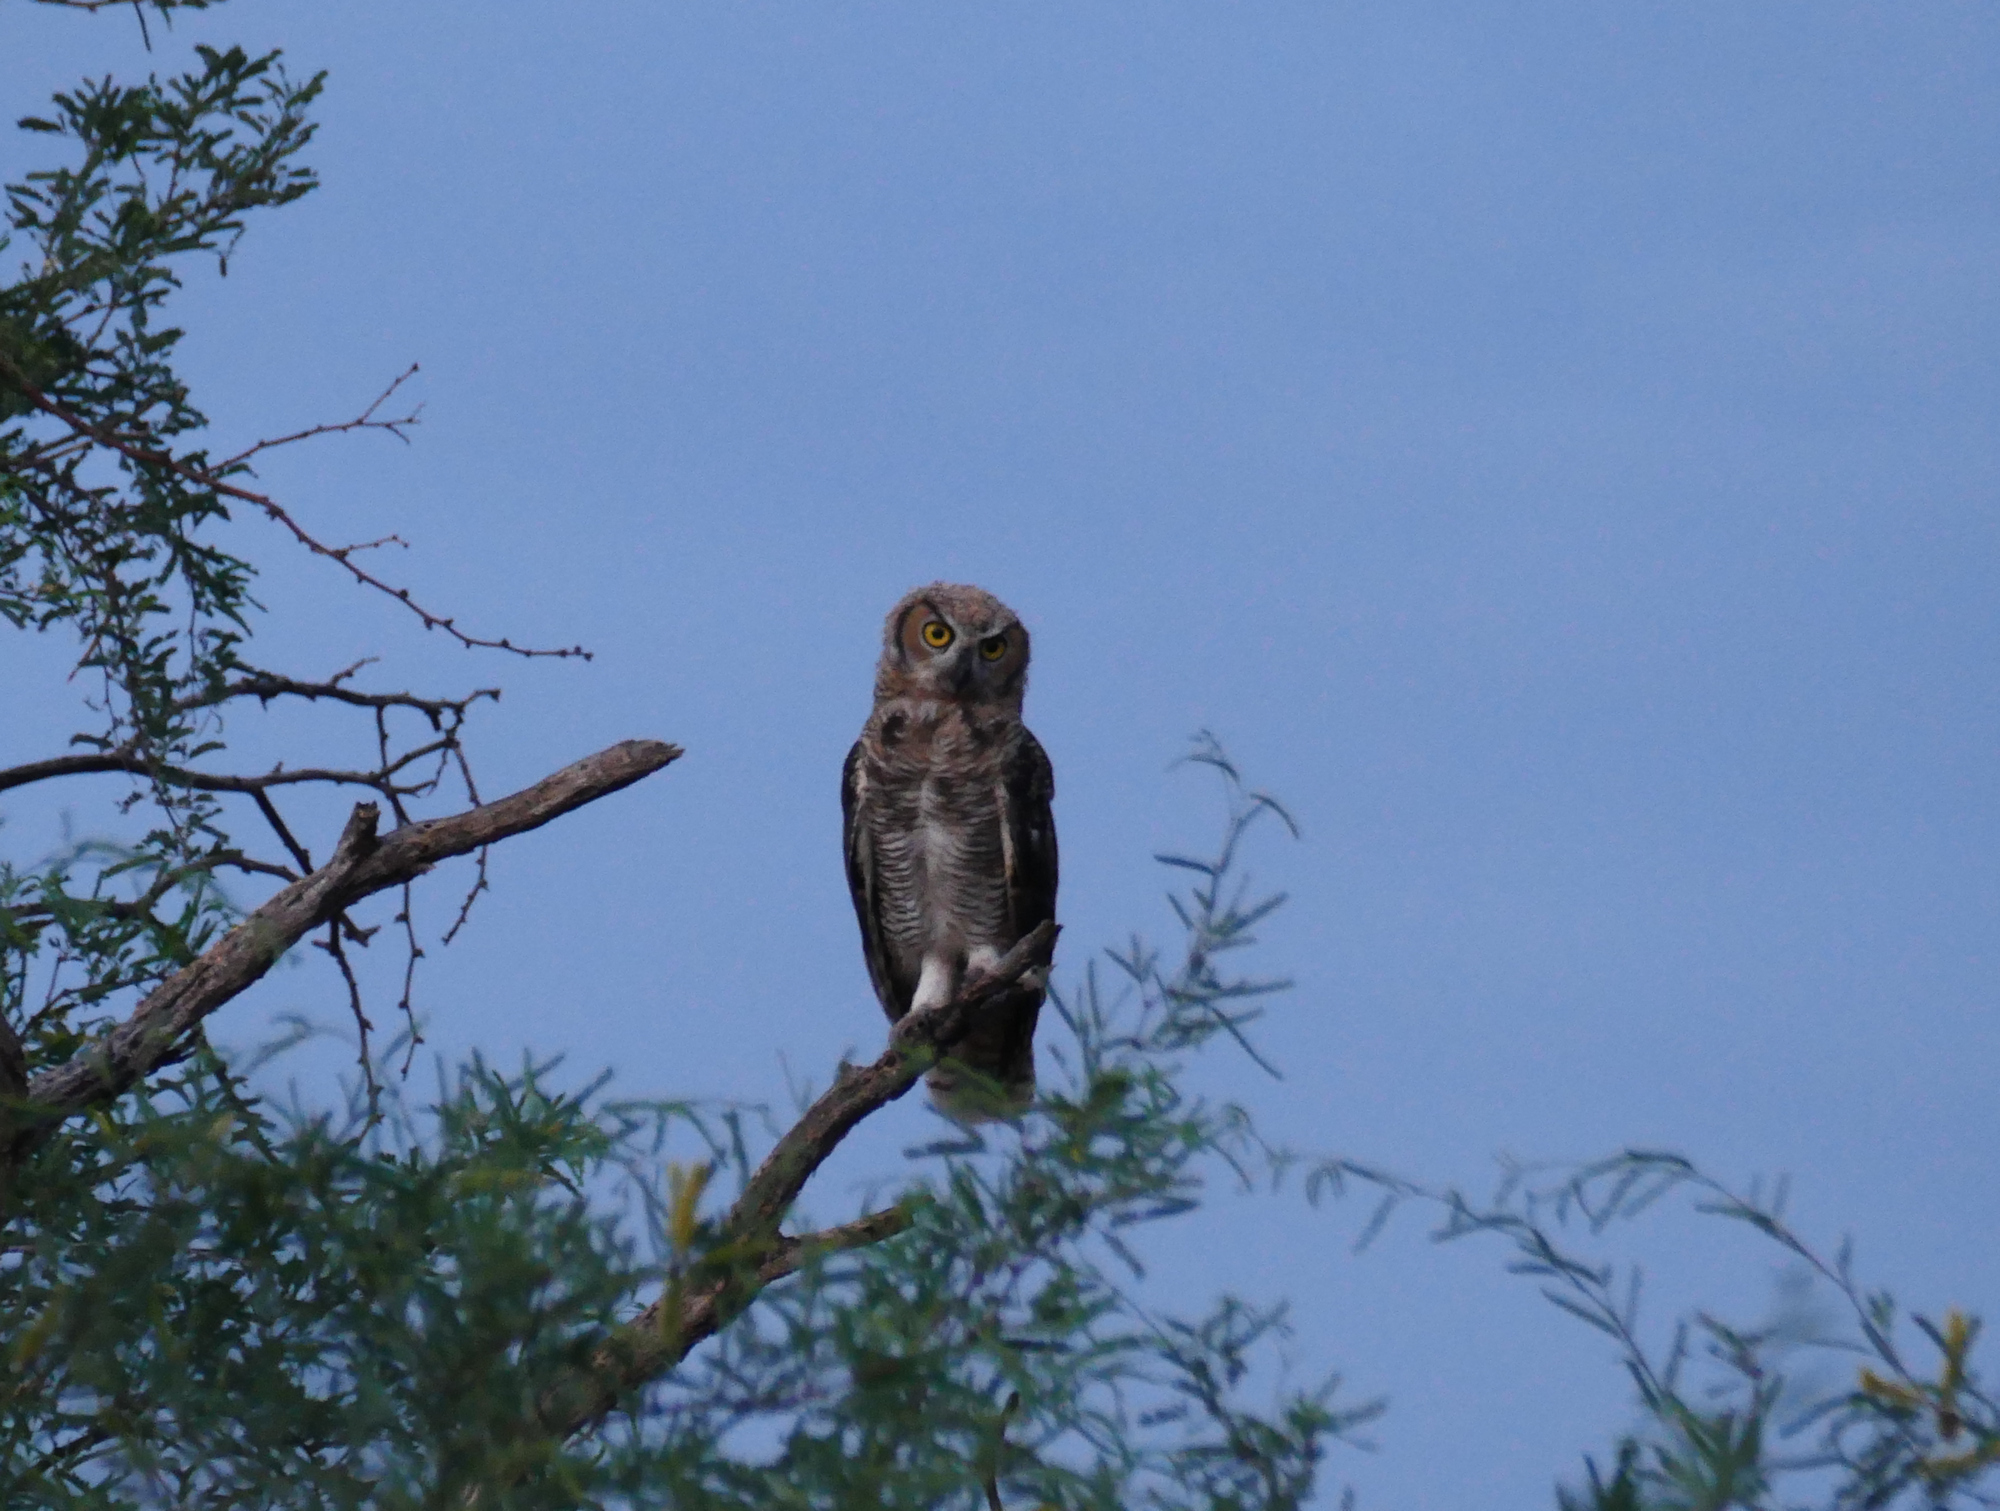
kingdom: Animalia
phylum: Chordata
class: Aves
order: Strigiformes
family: Strigidae
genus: Bubo
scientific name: Bubo virginianus
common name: Great horned owl
